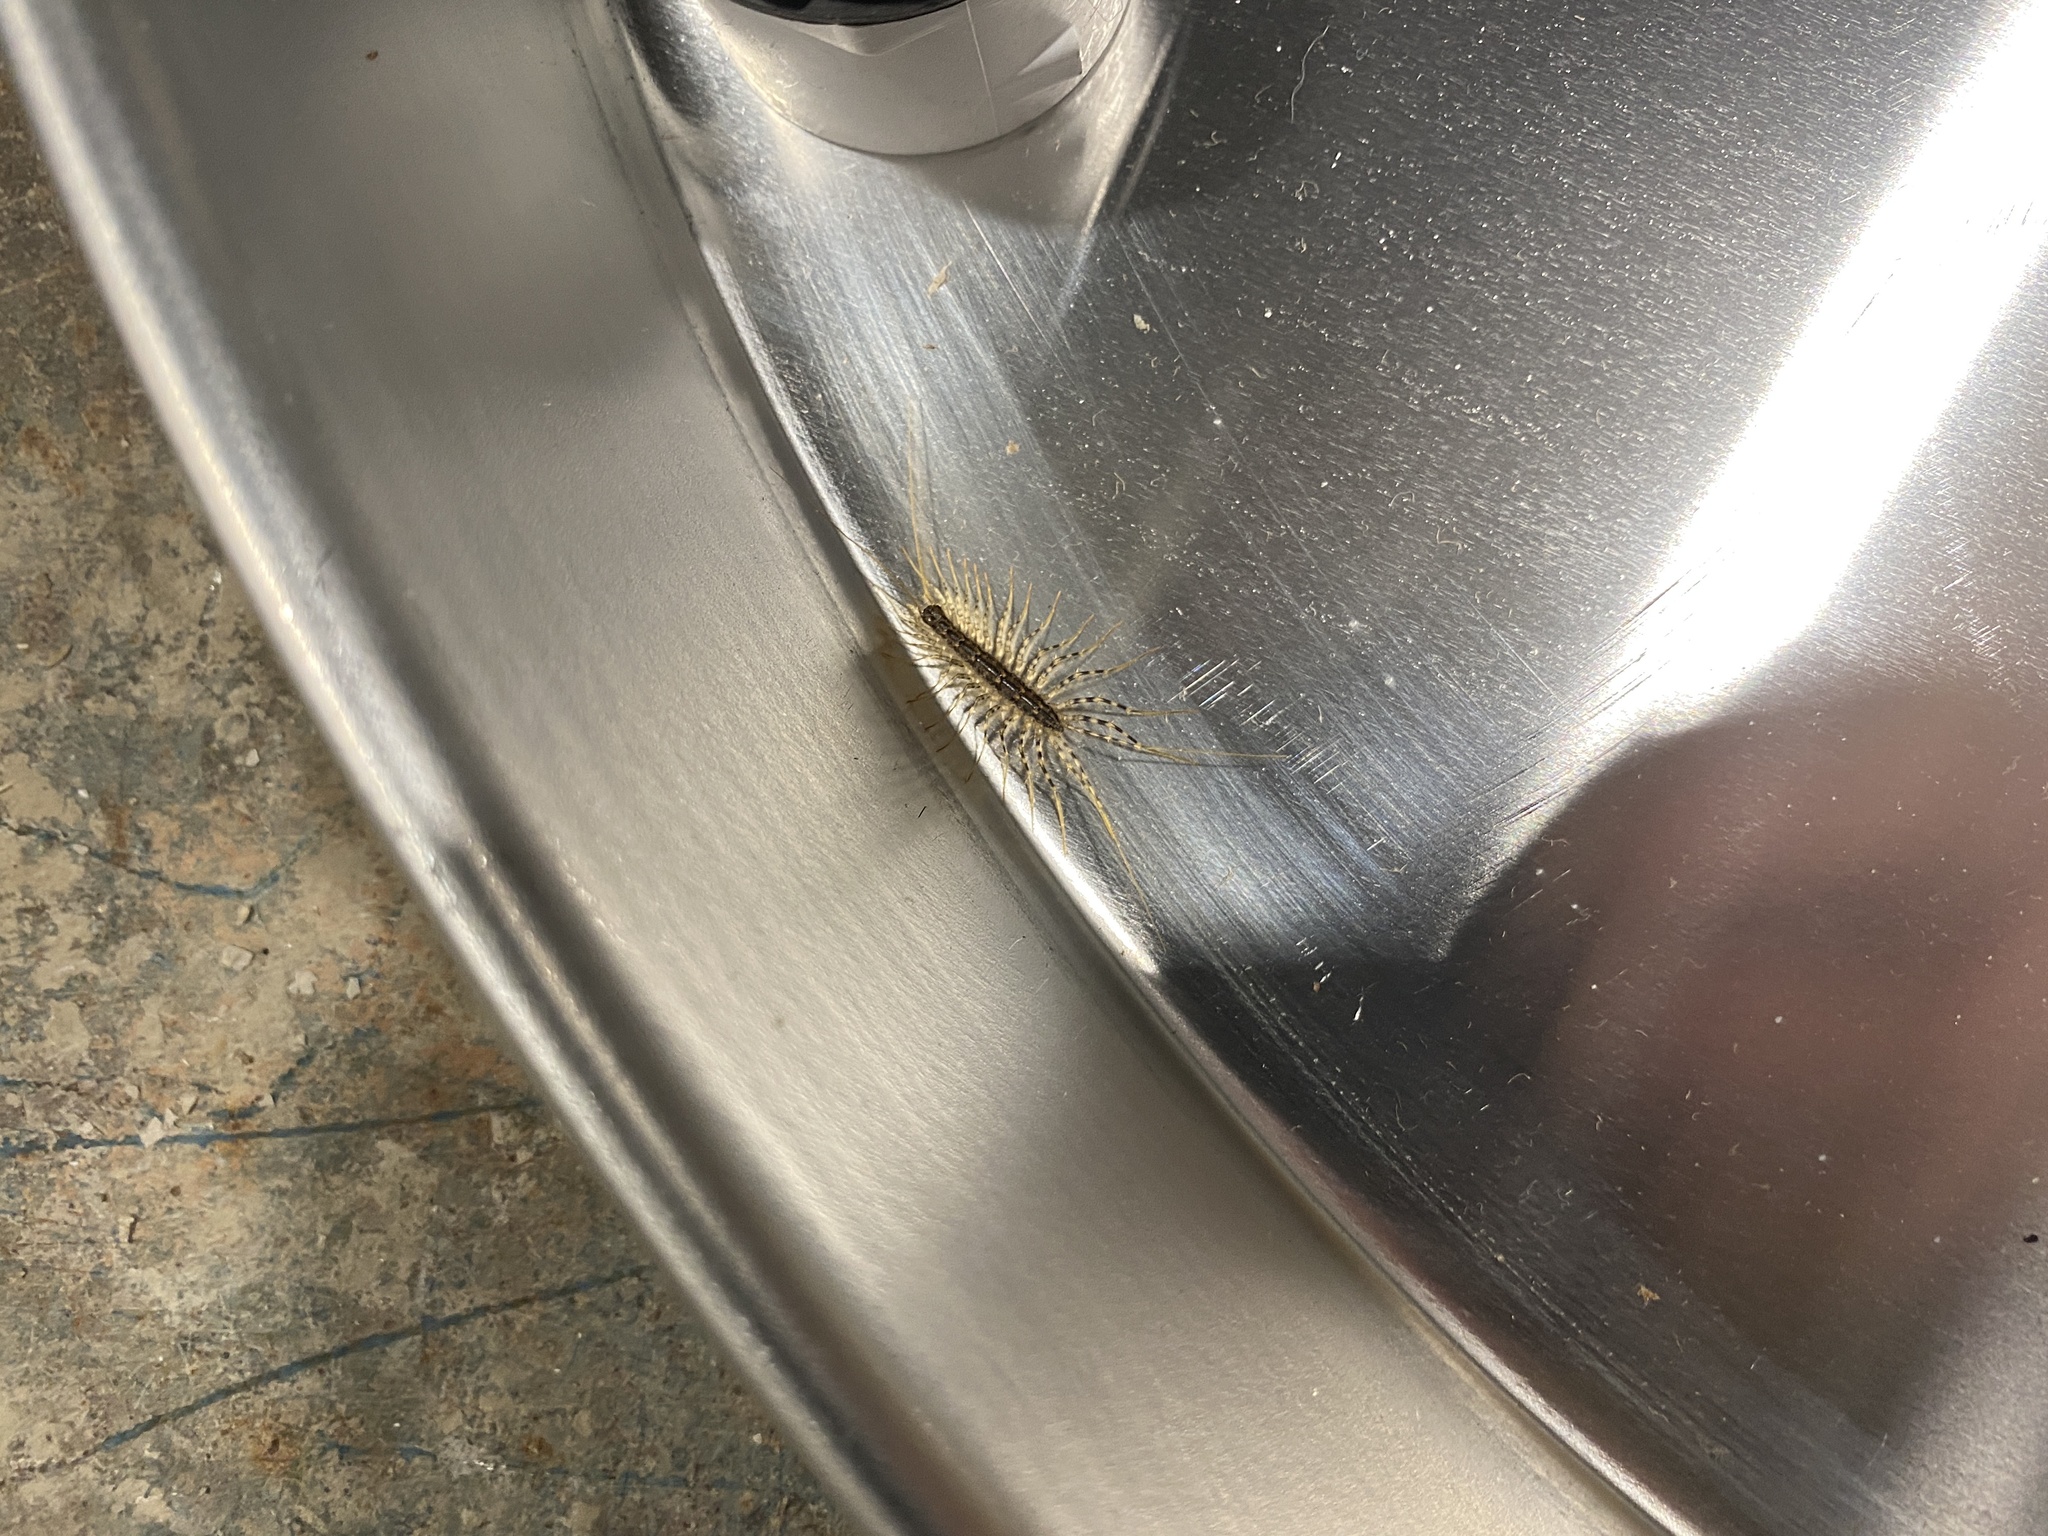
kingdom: Animalia
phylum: Arthropoda
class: Chilopoda
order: Scutigeromorpha
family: Scutigeridae
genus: Scutigera
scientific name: Scutigera coleoptrata
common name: House centipede
